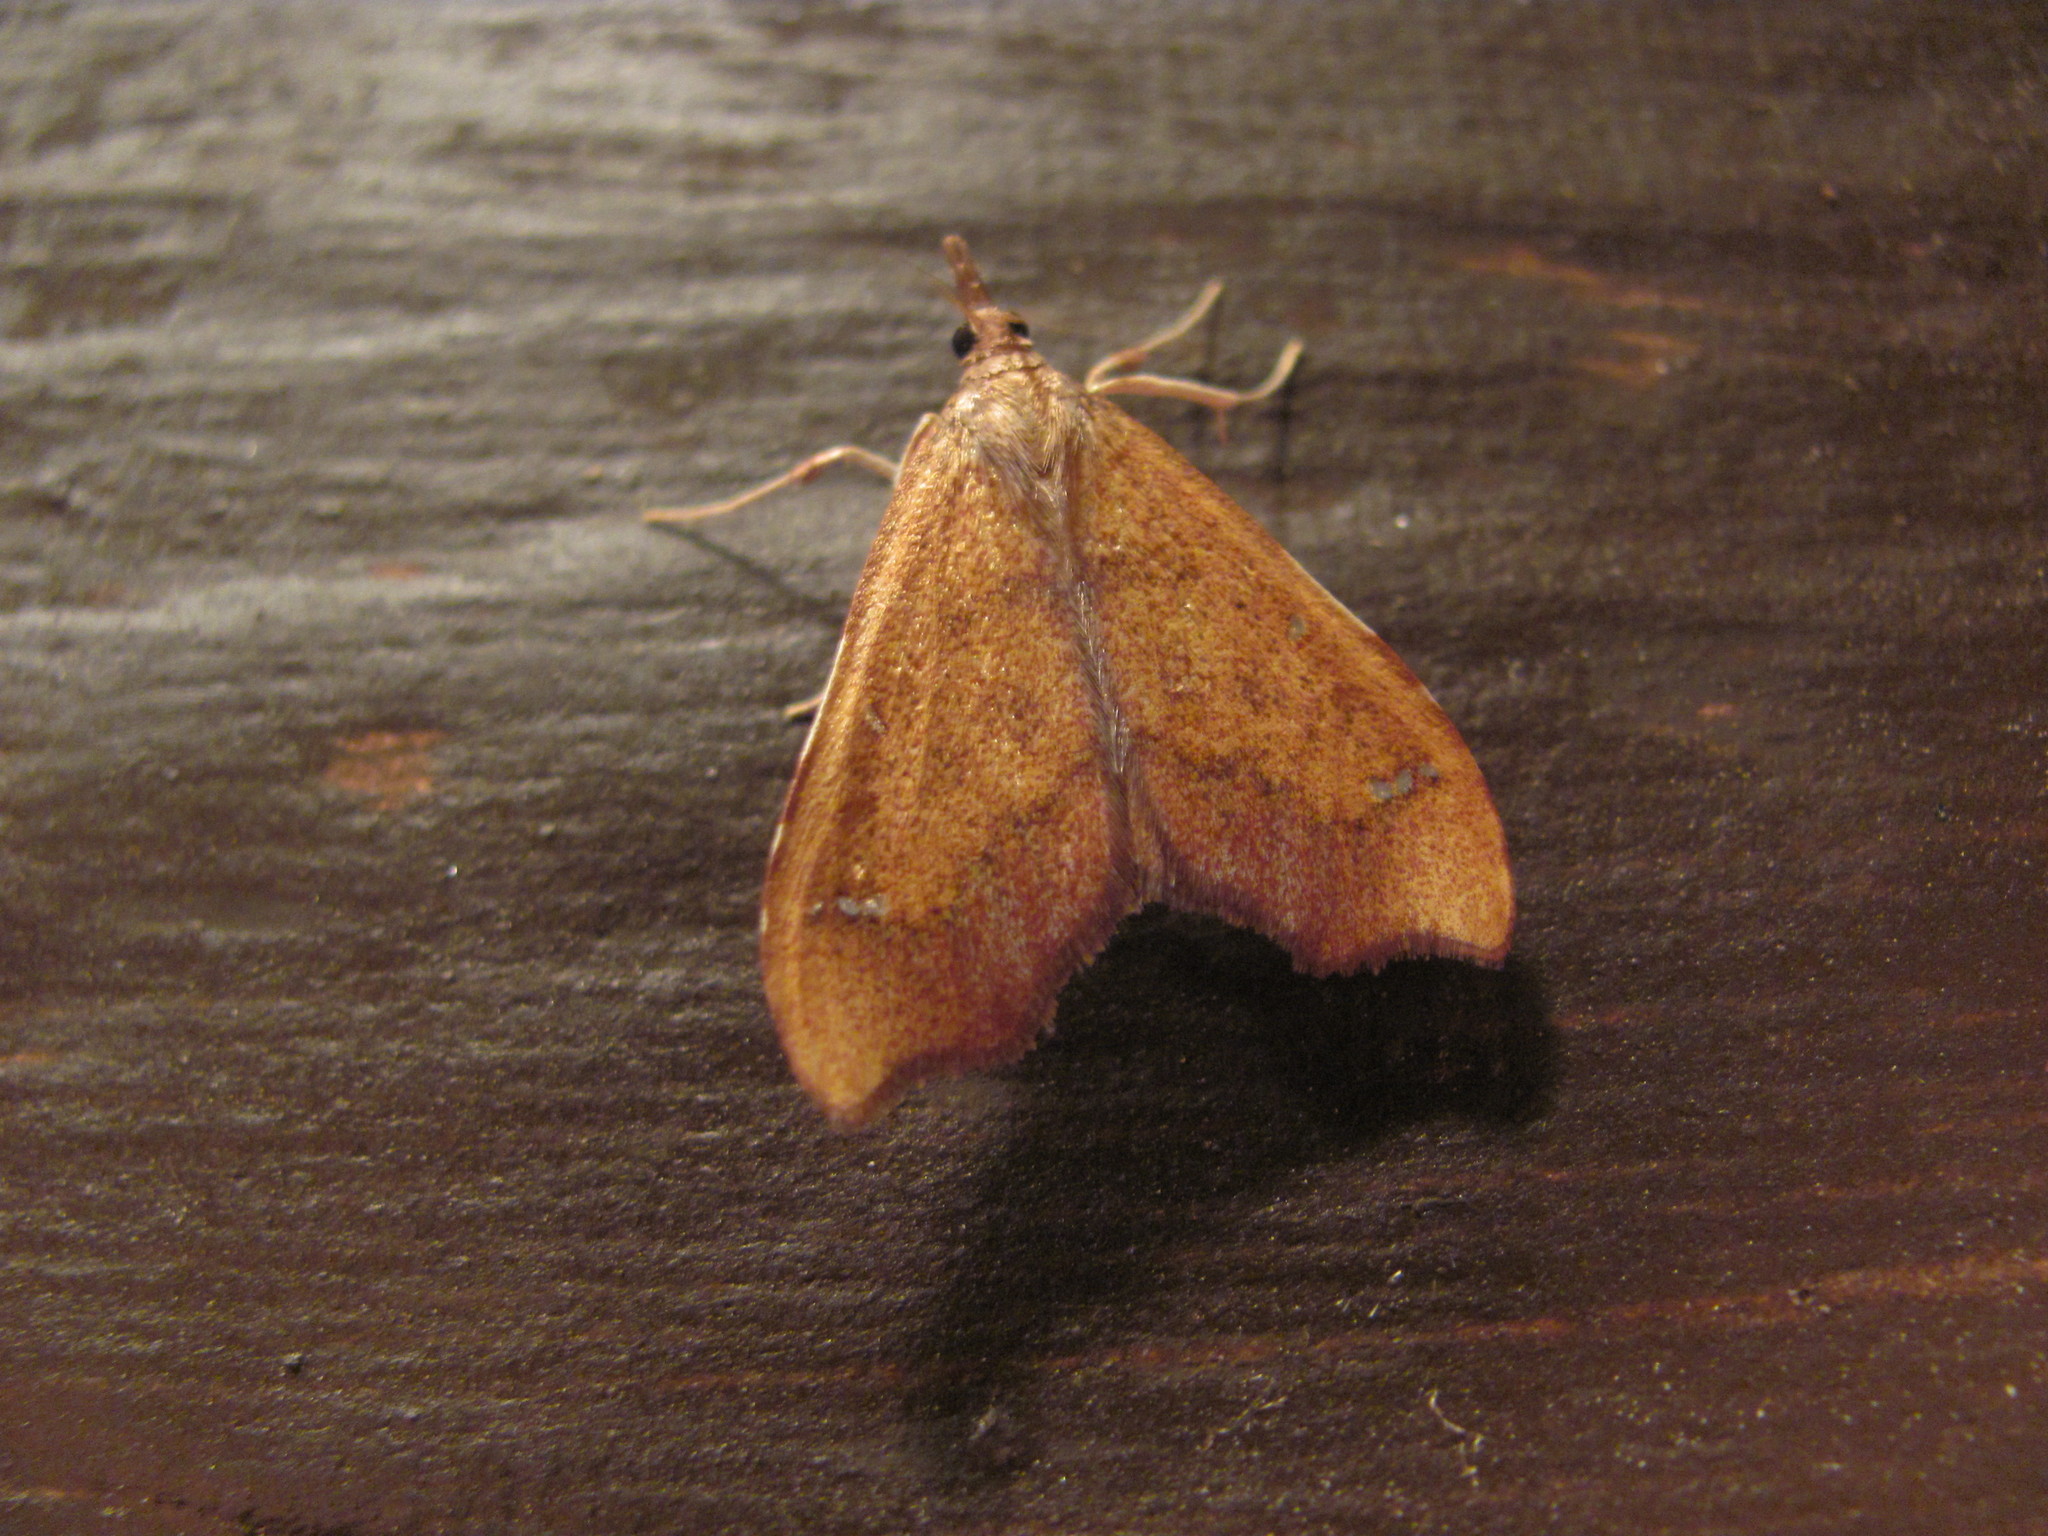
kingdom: Animalia
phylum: Arthropoda
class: Insecta
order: Lepidoptera
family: Crambidae
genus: Deana
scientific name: Deana hybreasalis
